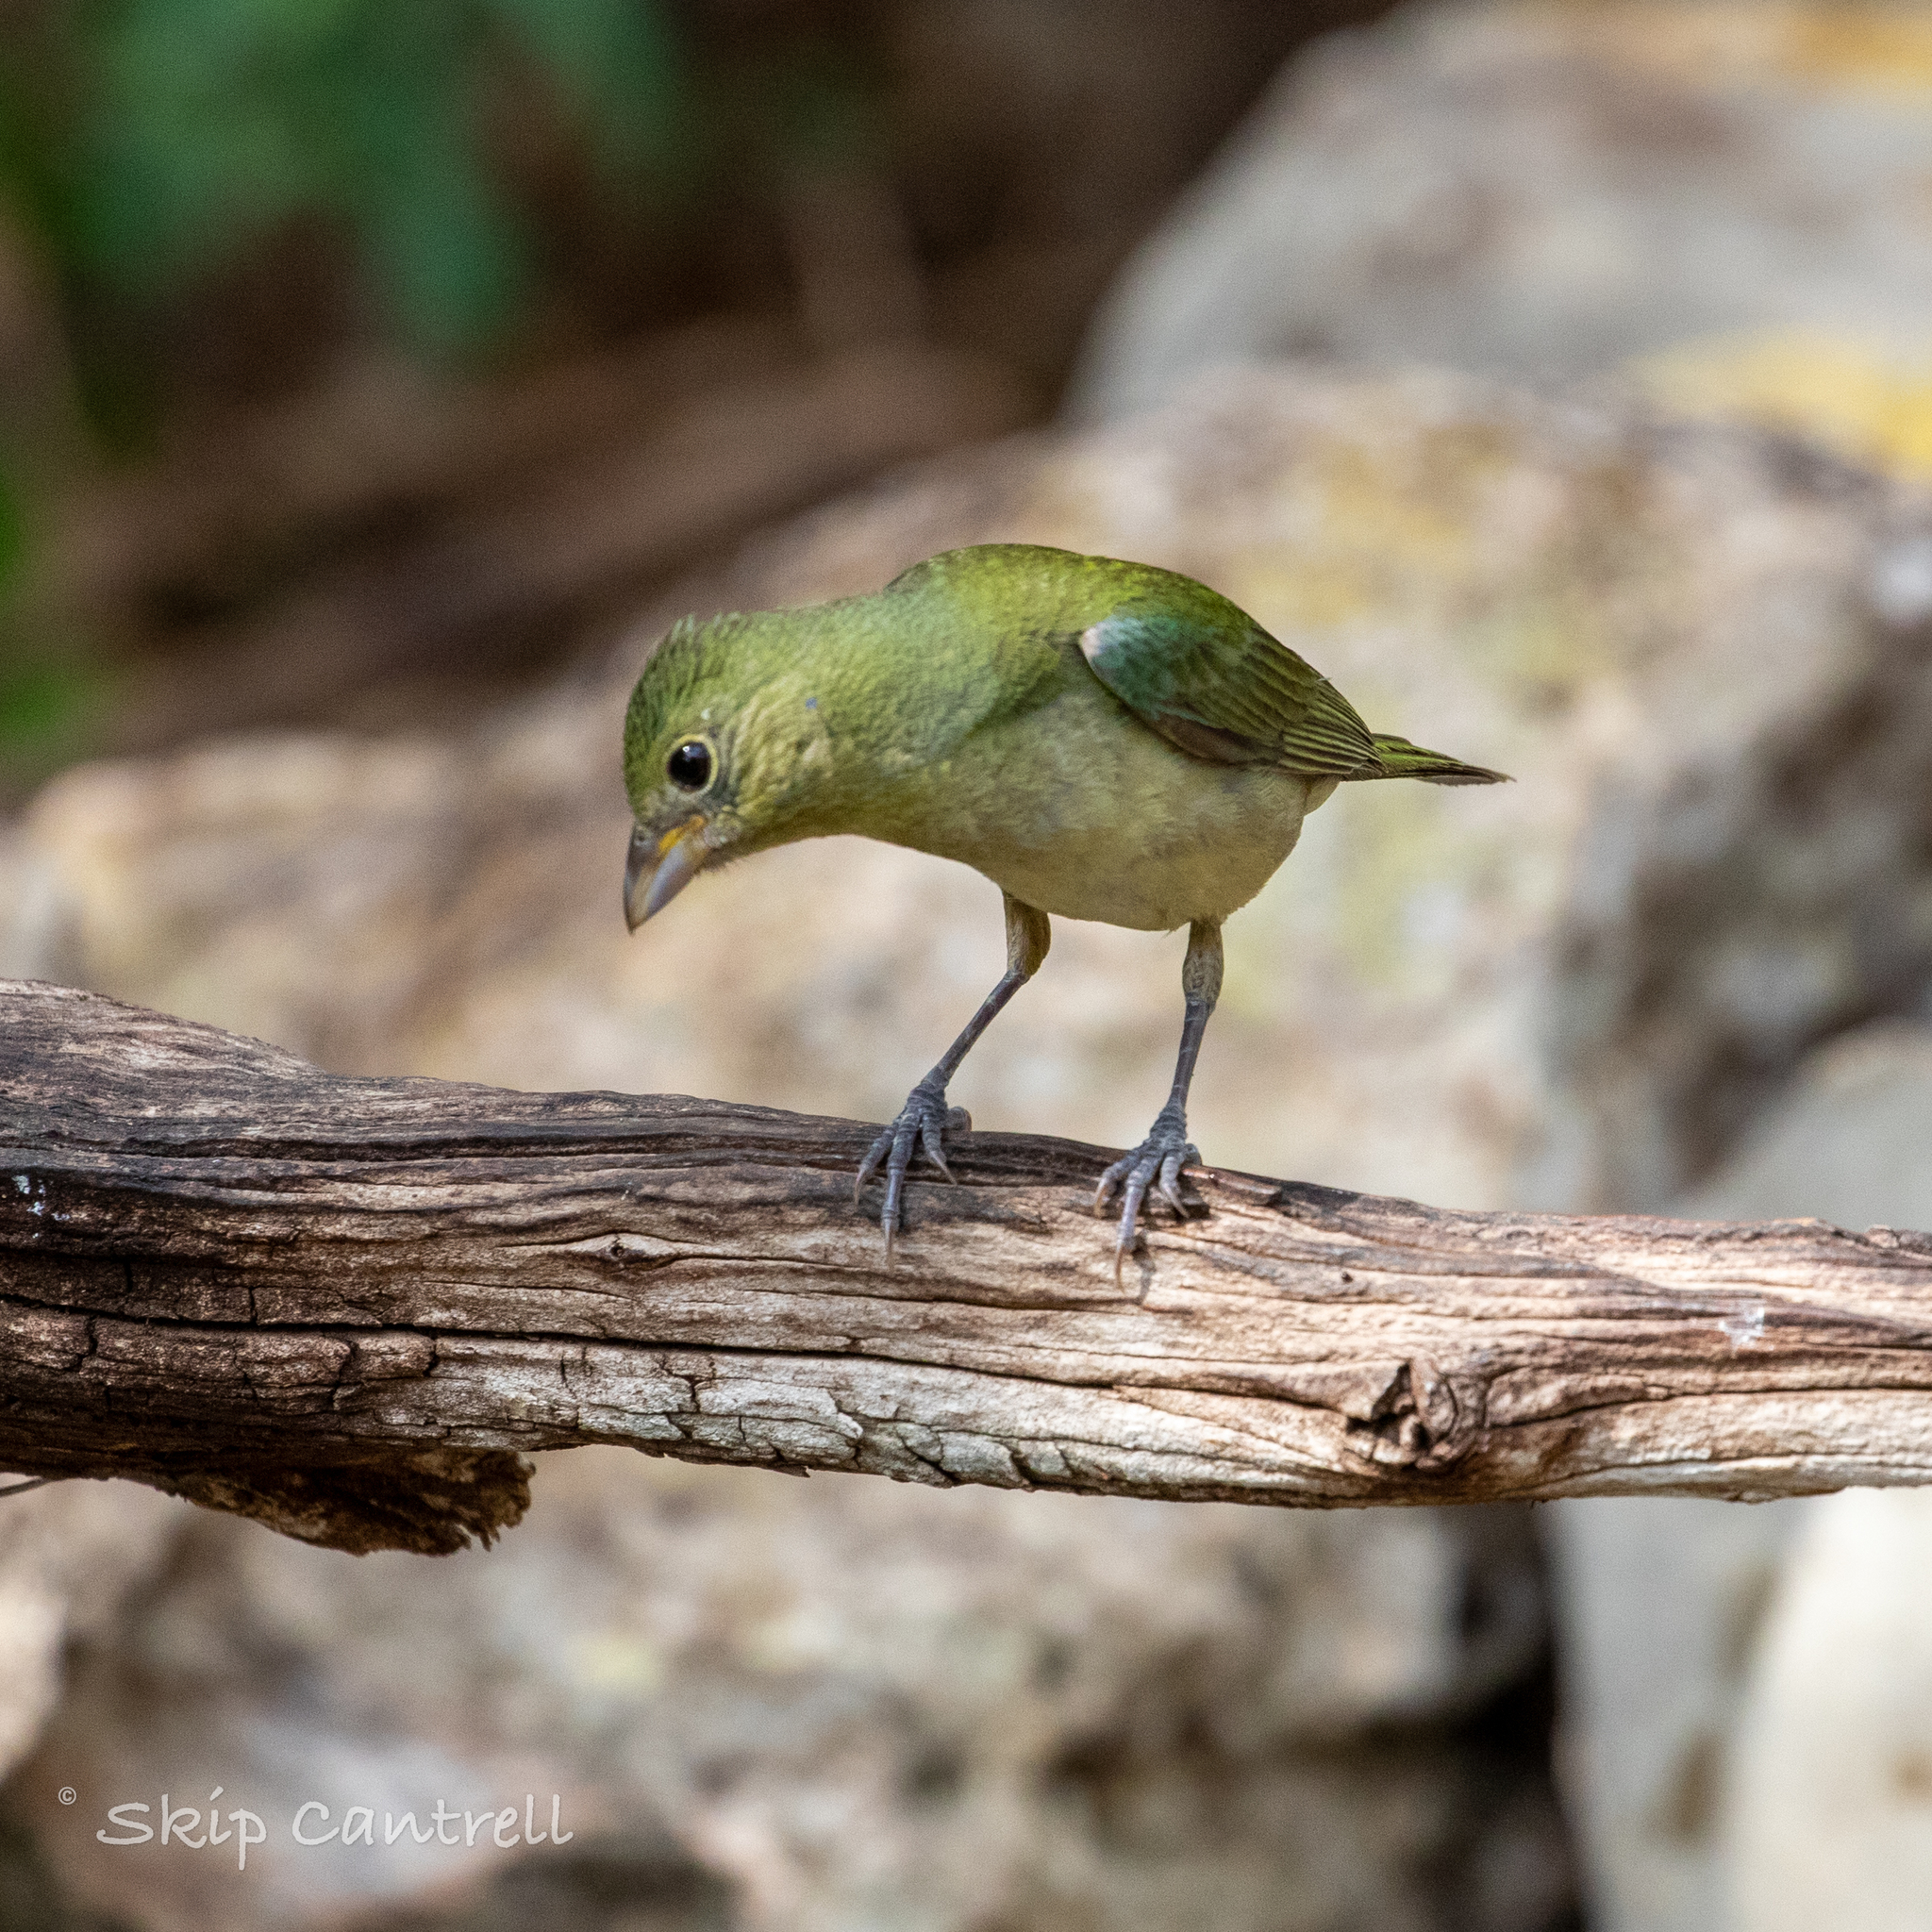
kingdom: Animalia
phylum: Chordata
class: Aves
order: Passeriformes
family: Cardinalidae
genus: Passerina
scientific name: Passerina ciris
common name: Painted bunting
